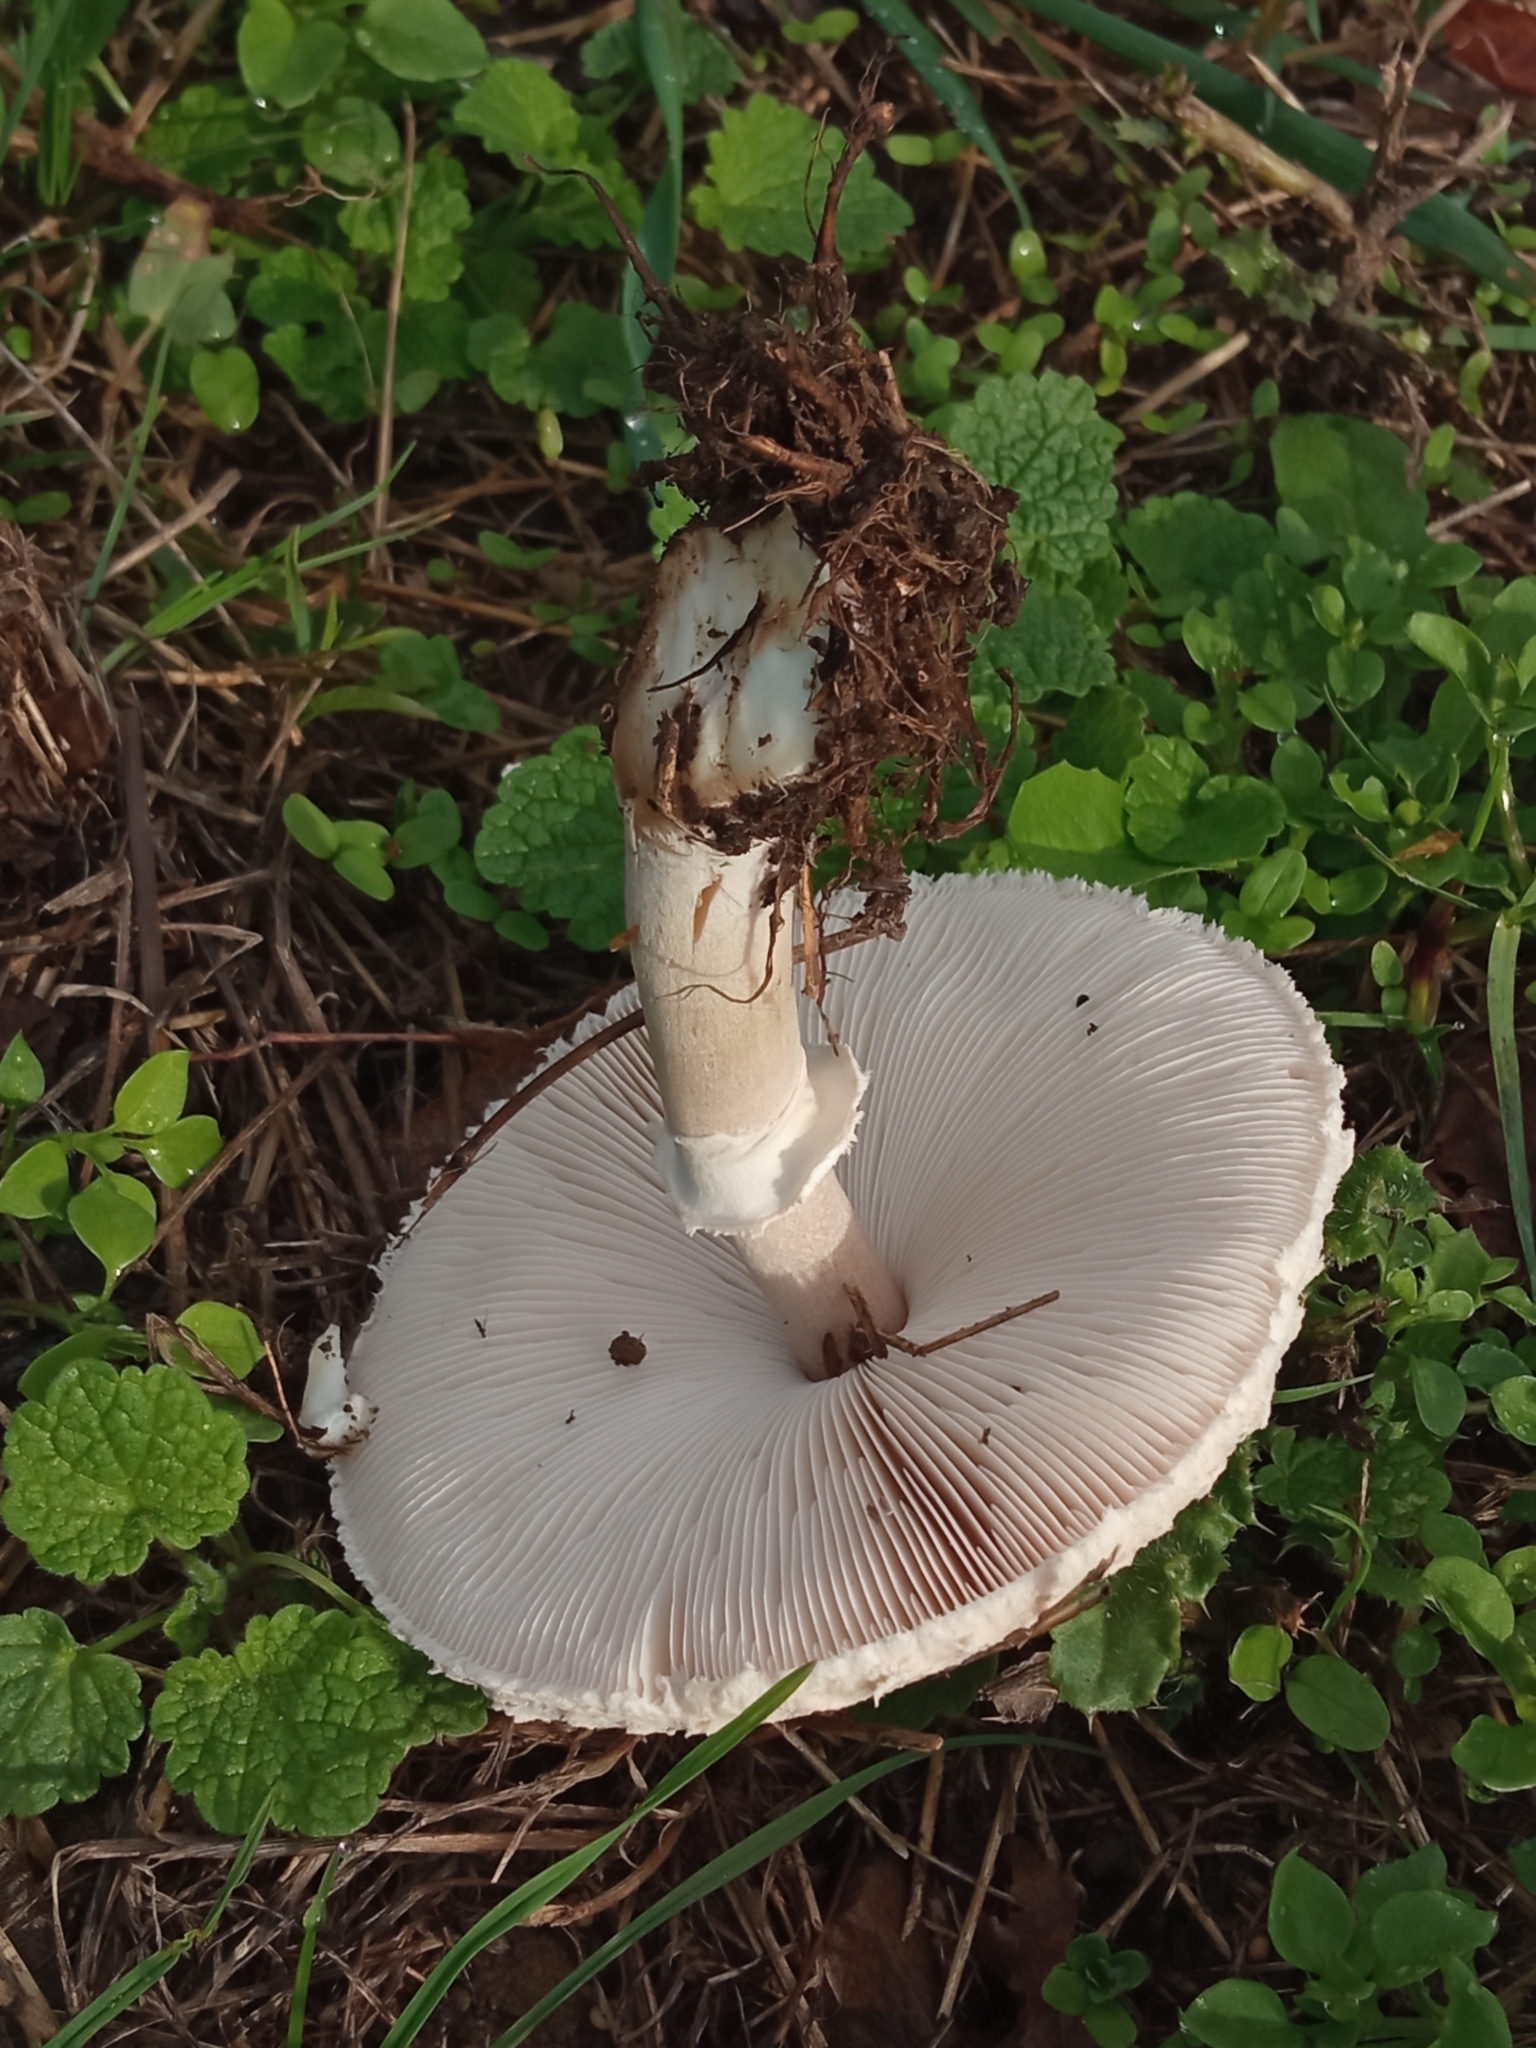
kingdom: Fungi
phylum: Basidiomycota
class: Agaricomycetes
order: Agaricales
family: Agaricaceae
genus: Macrolepiota
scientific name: Macrolepiota excoriata
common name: Frayed parasol
